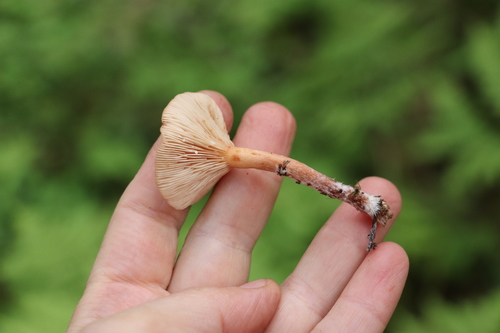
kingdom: Fungi
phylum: Basidiomycota
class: Agaricomycetes
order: Russulales
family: Russulaceae
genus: Lactarius
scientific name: Lactarius aurantiacus
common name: Orange milkcap
